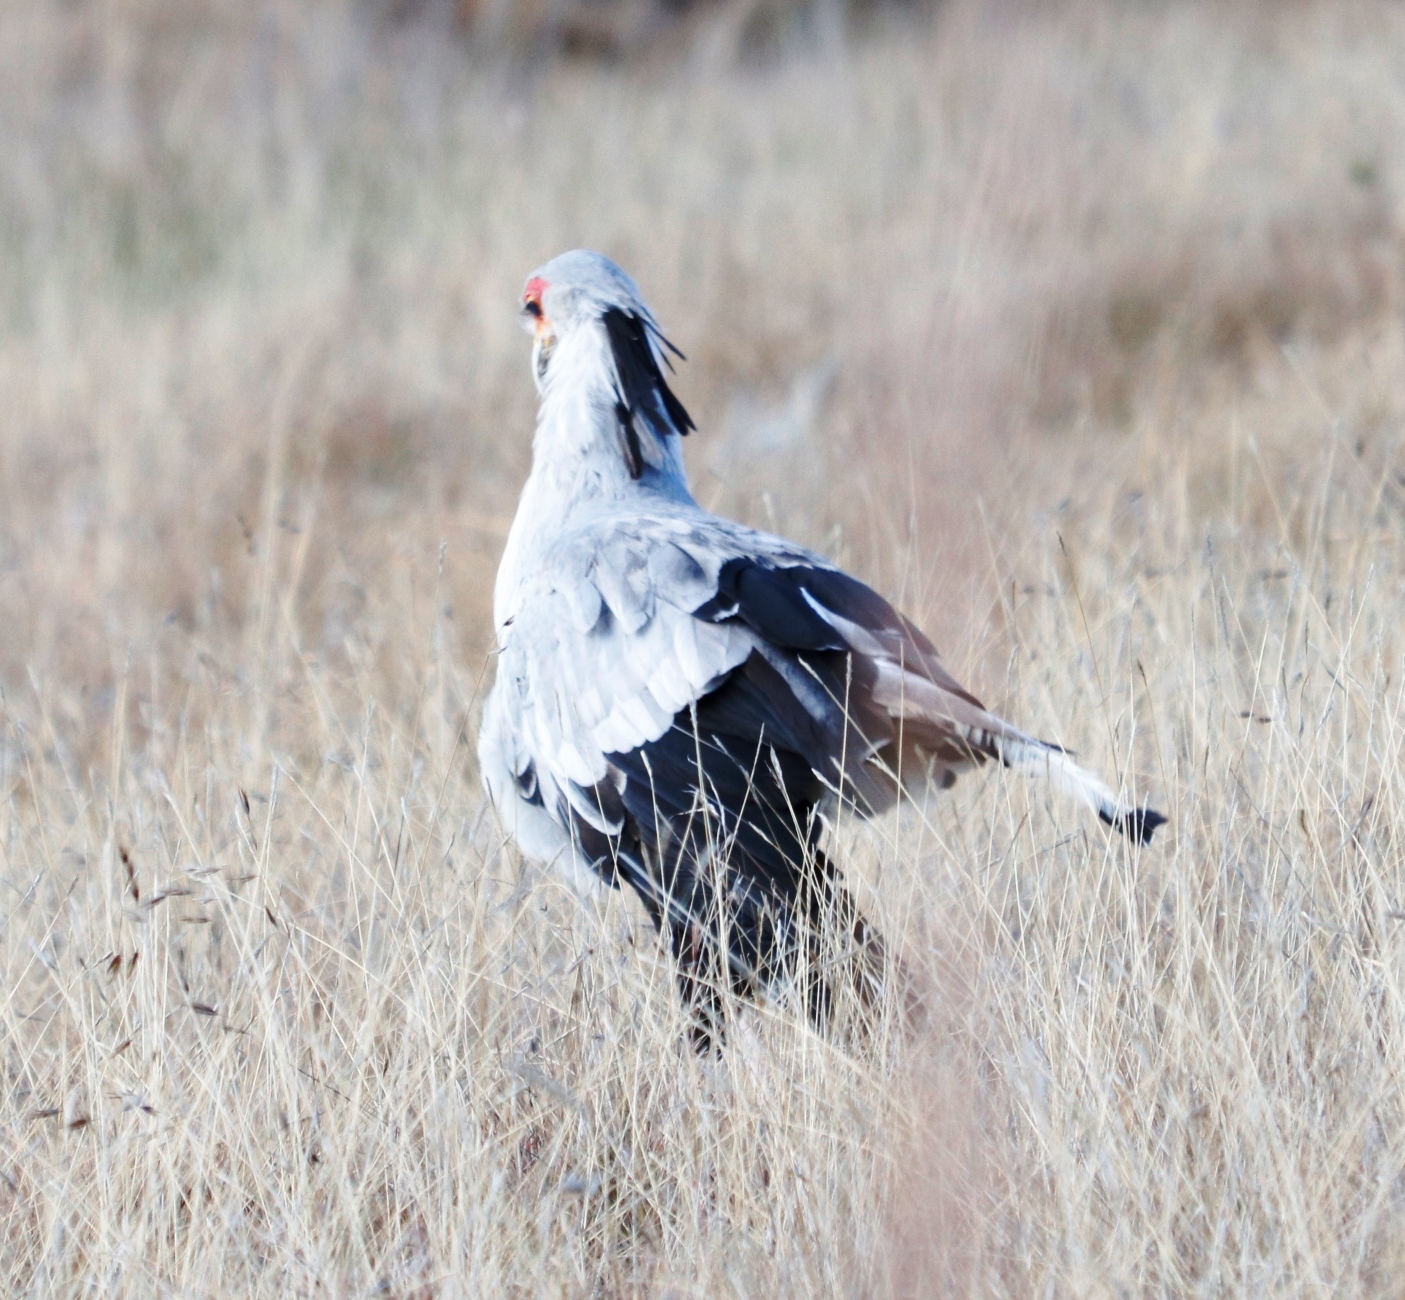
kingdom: Animalia
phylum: Chordata
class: Aves
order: Accipitriformes
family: Sagittariidae
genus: Sagittarius
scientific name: Sagittarius serpentarius
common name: Secretarybird
